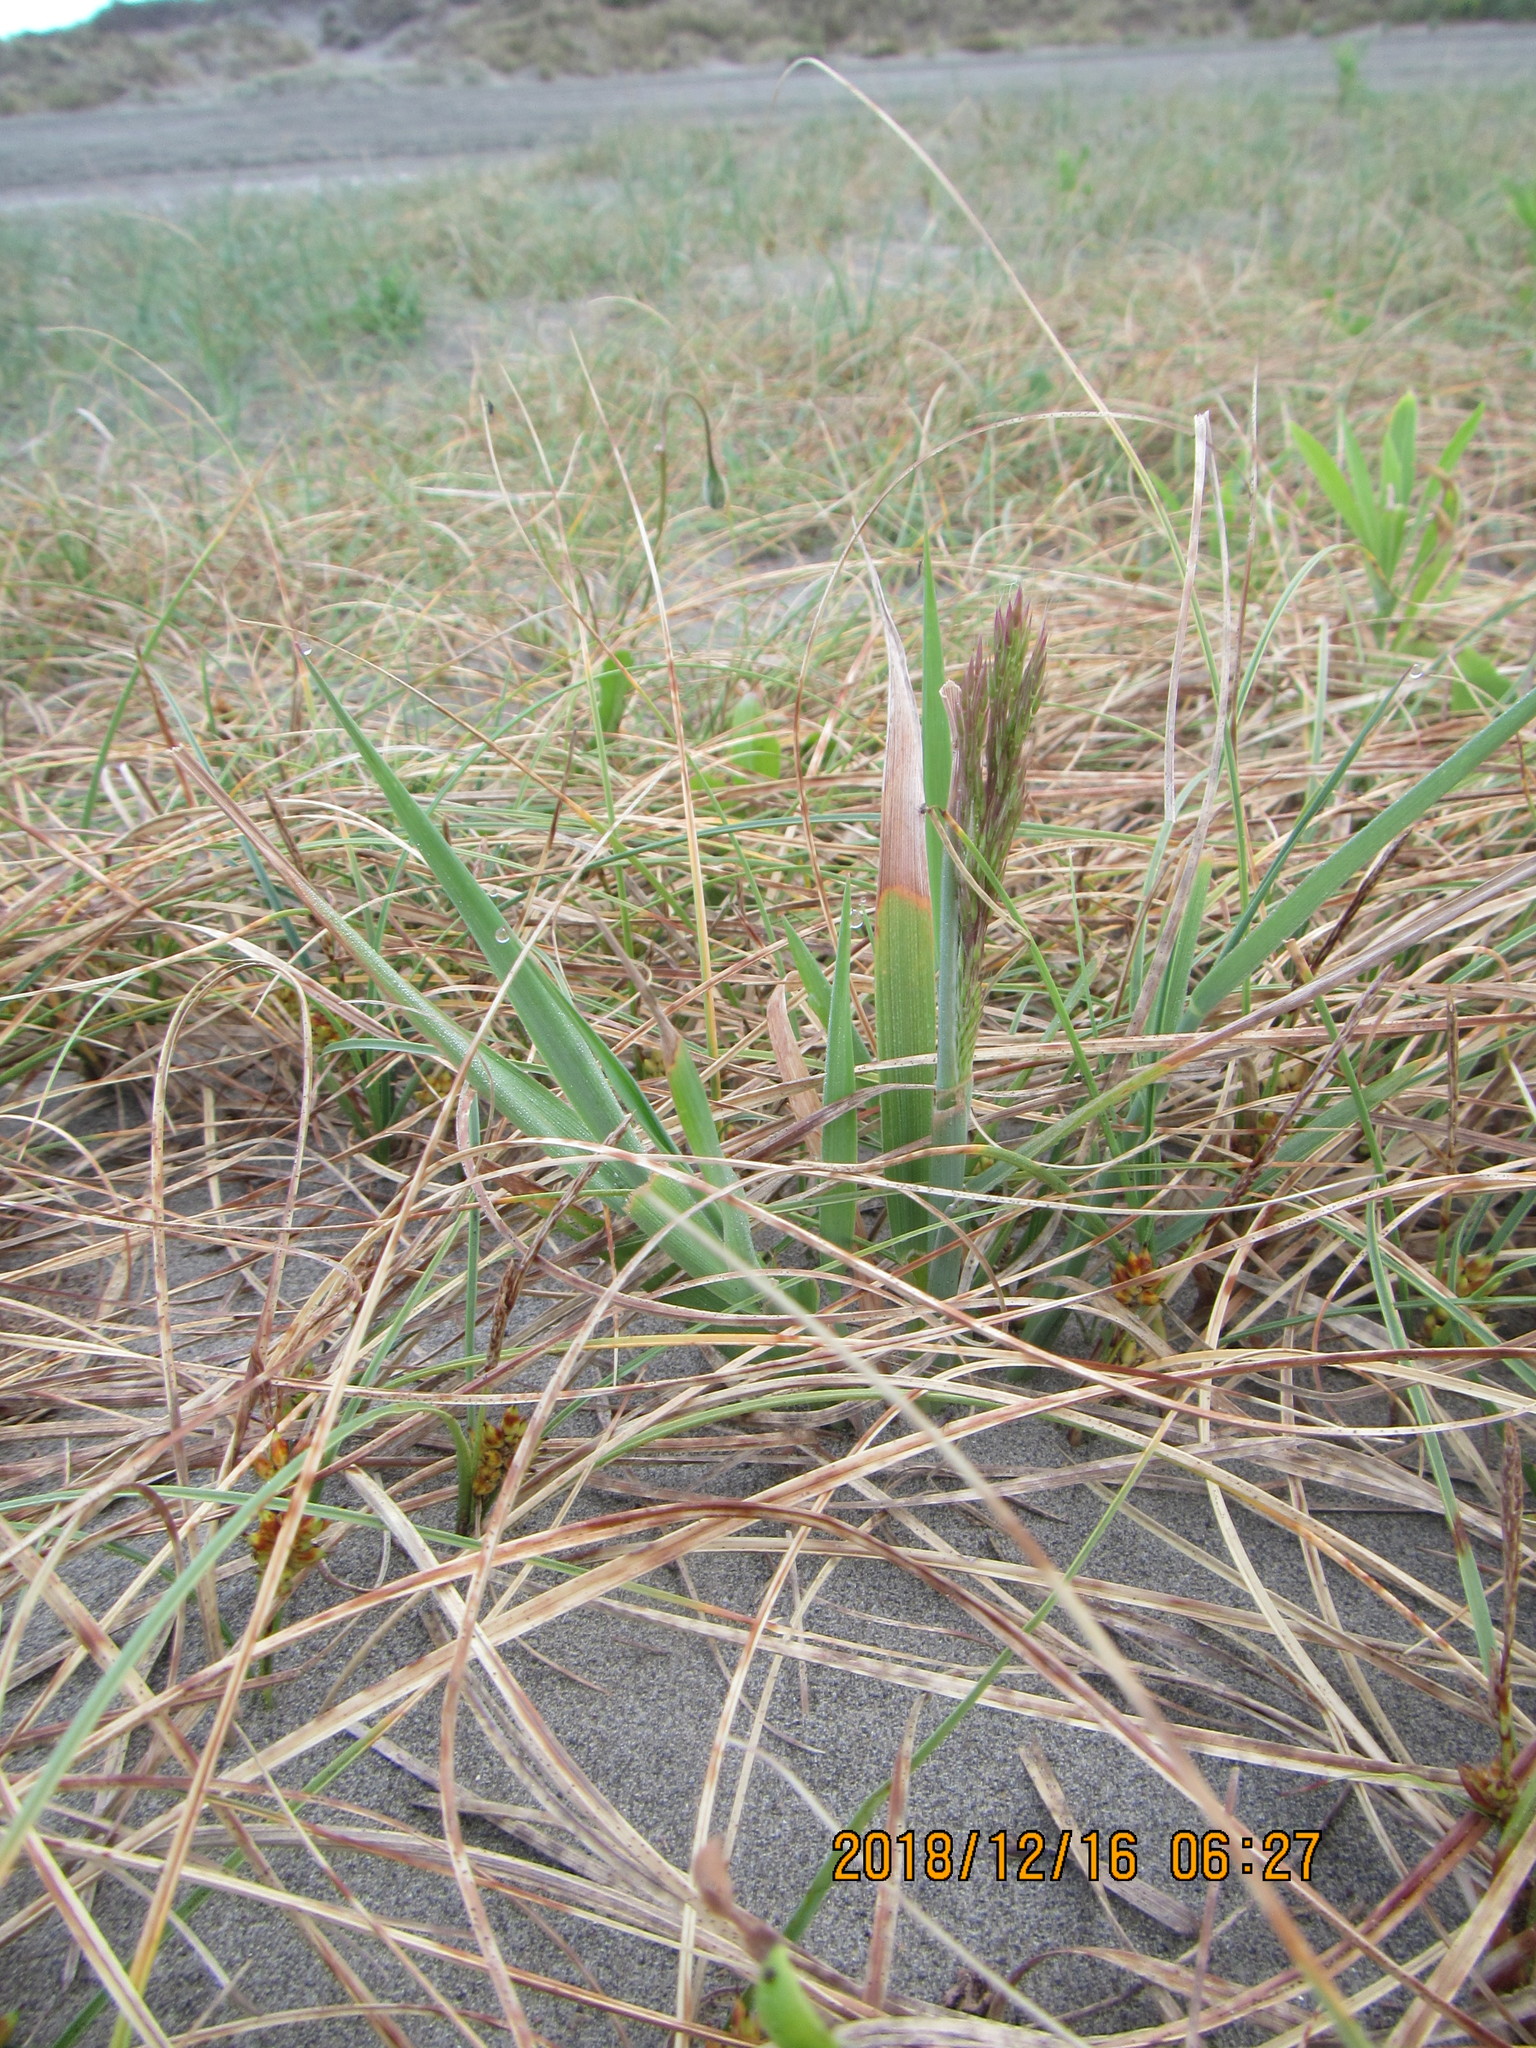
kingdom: Plantae
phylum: Tracheophyta
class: Liliopsida
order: Poales
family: Poaceae
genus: Lachnagrostis
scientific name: Lachnagrostis billardierei
